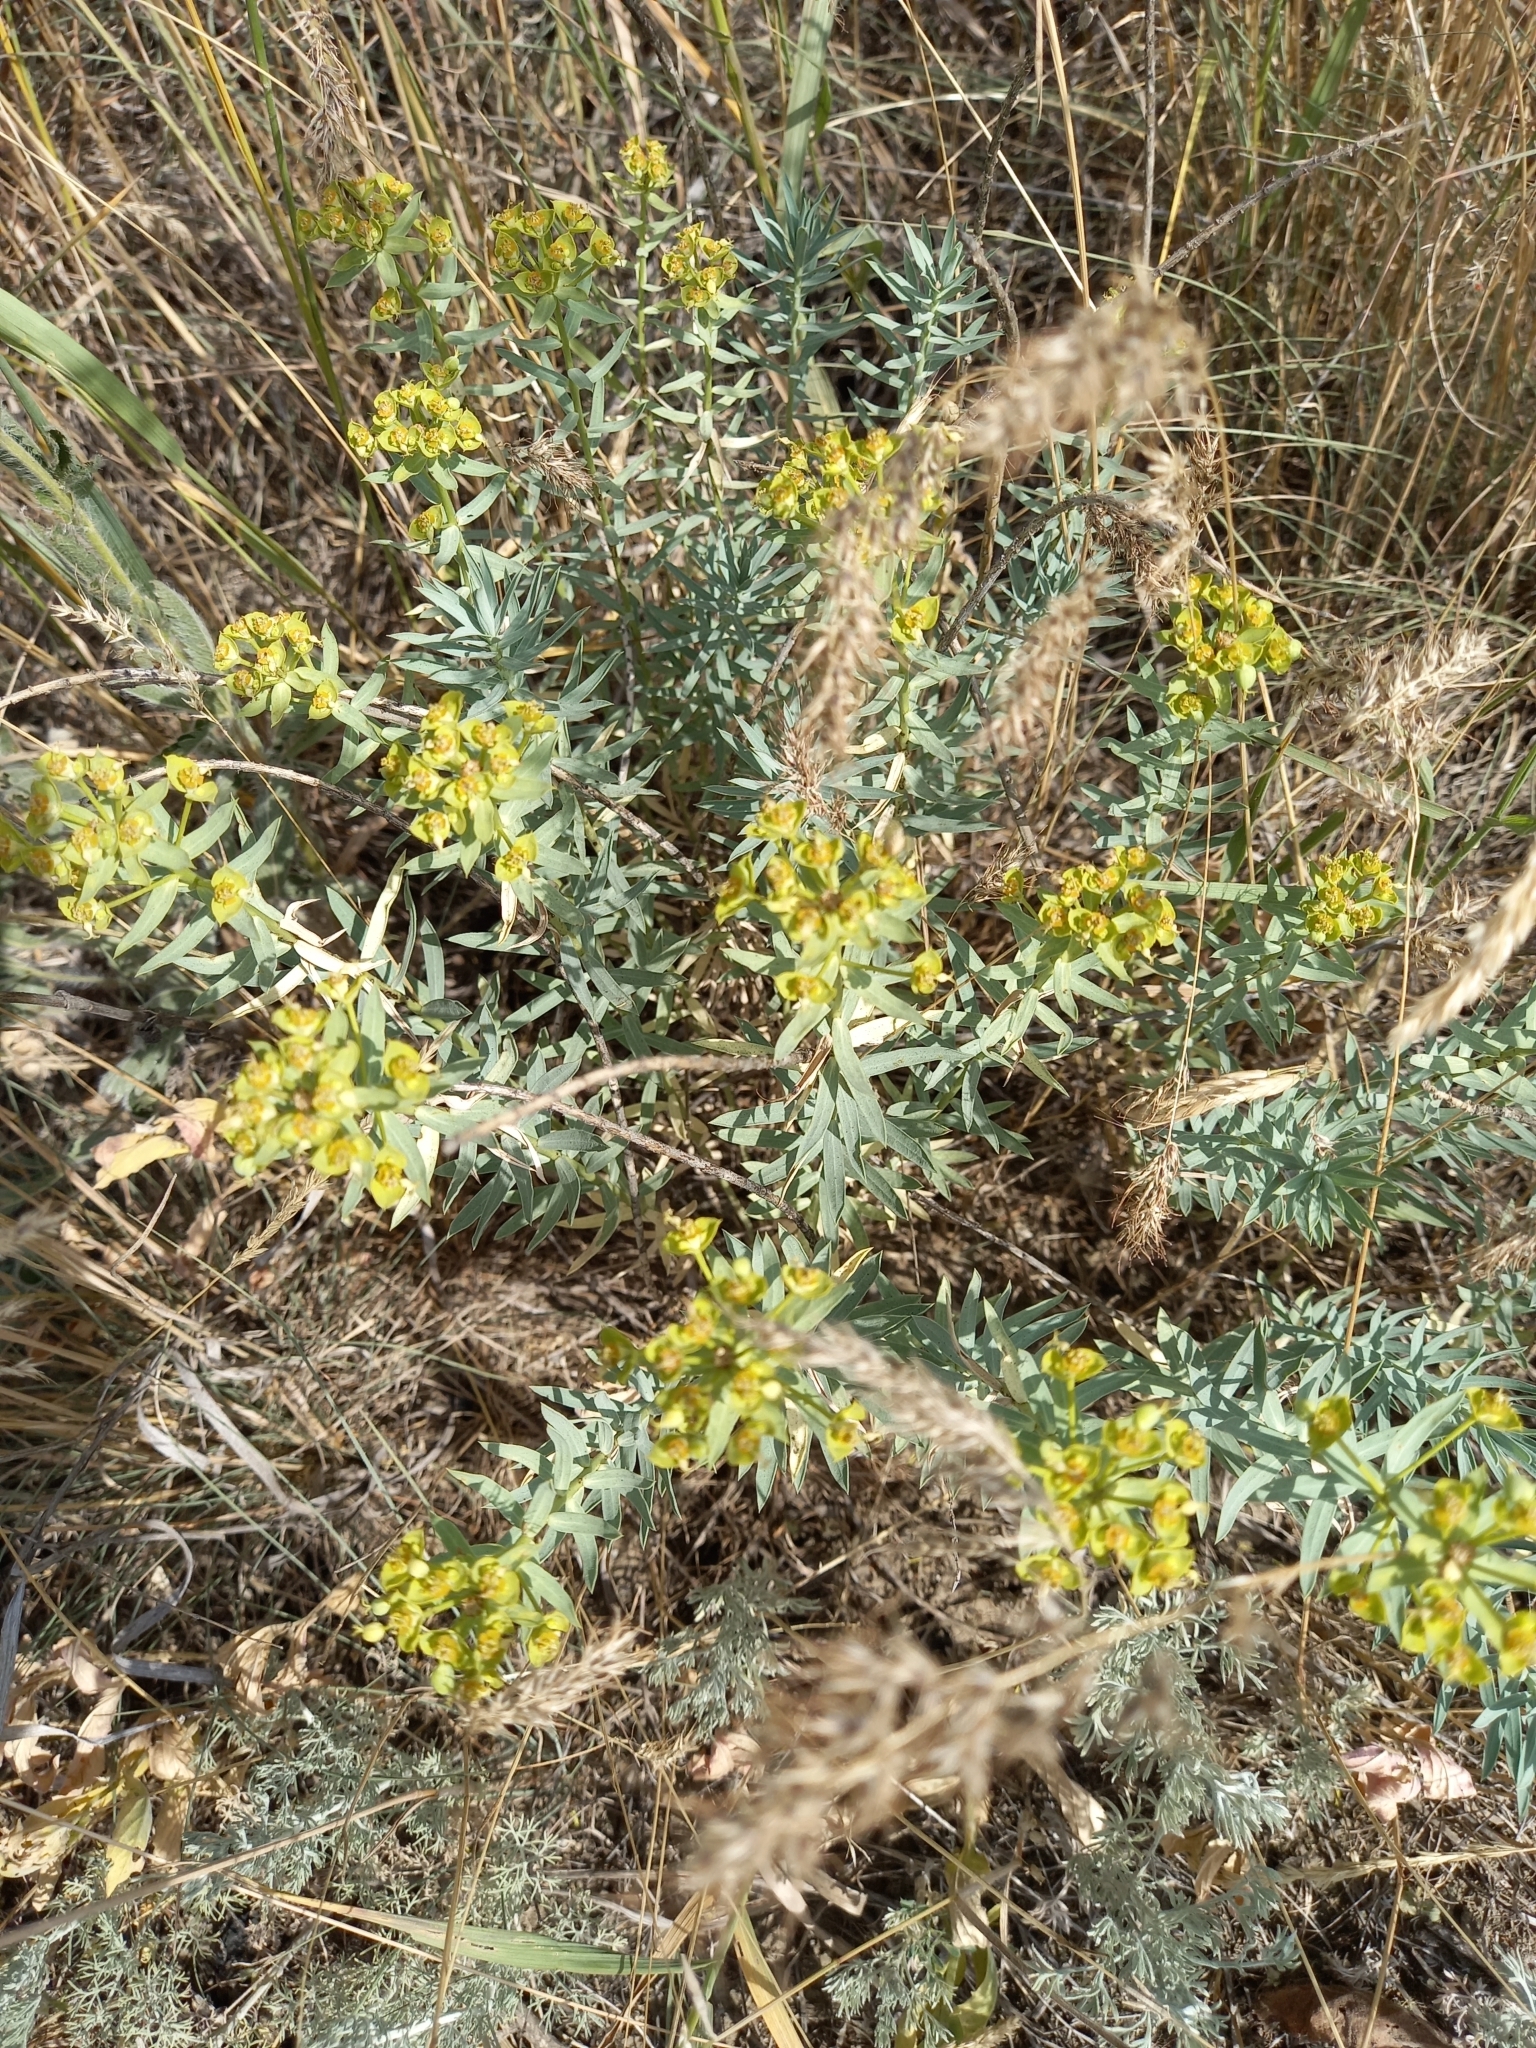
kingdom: Plantae
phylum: Tracheophyta
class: Magnoliopsida
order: Malpighiales
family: Euphorbiaceae
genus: Euphorbia
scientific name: Euphorbia seguieriana
